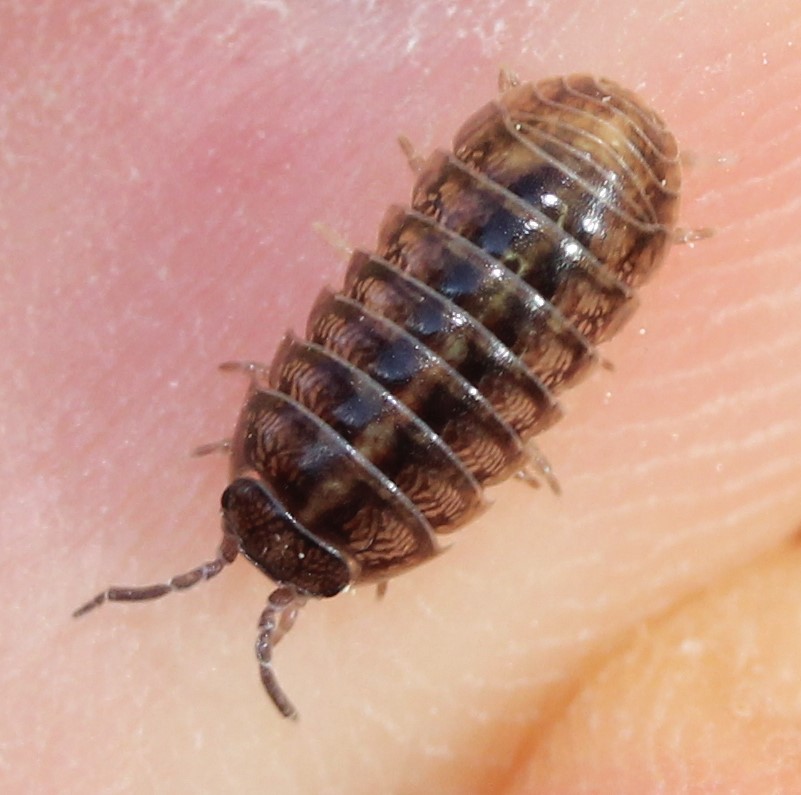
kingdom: Animalia
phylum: Arthropoda
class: Malacostraca
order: Isopoda
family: Armadillidiidae
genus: Armadillidium
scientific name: Armadillidium vulgare
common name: Common pill woodlouse
